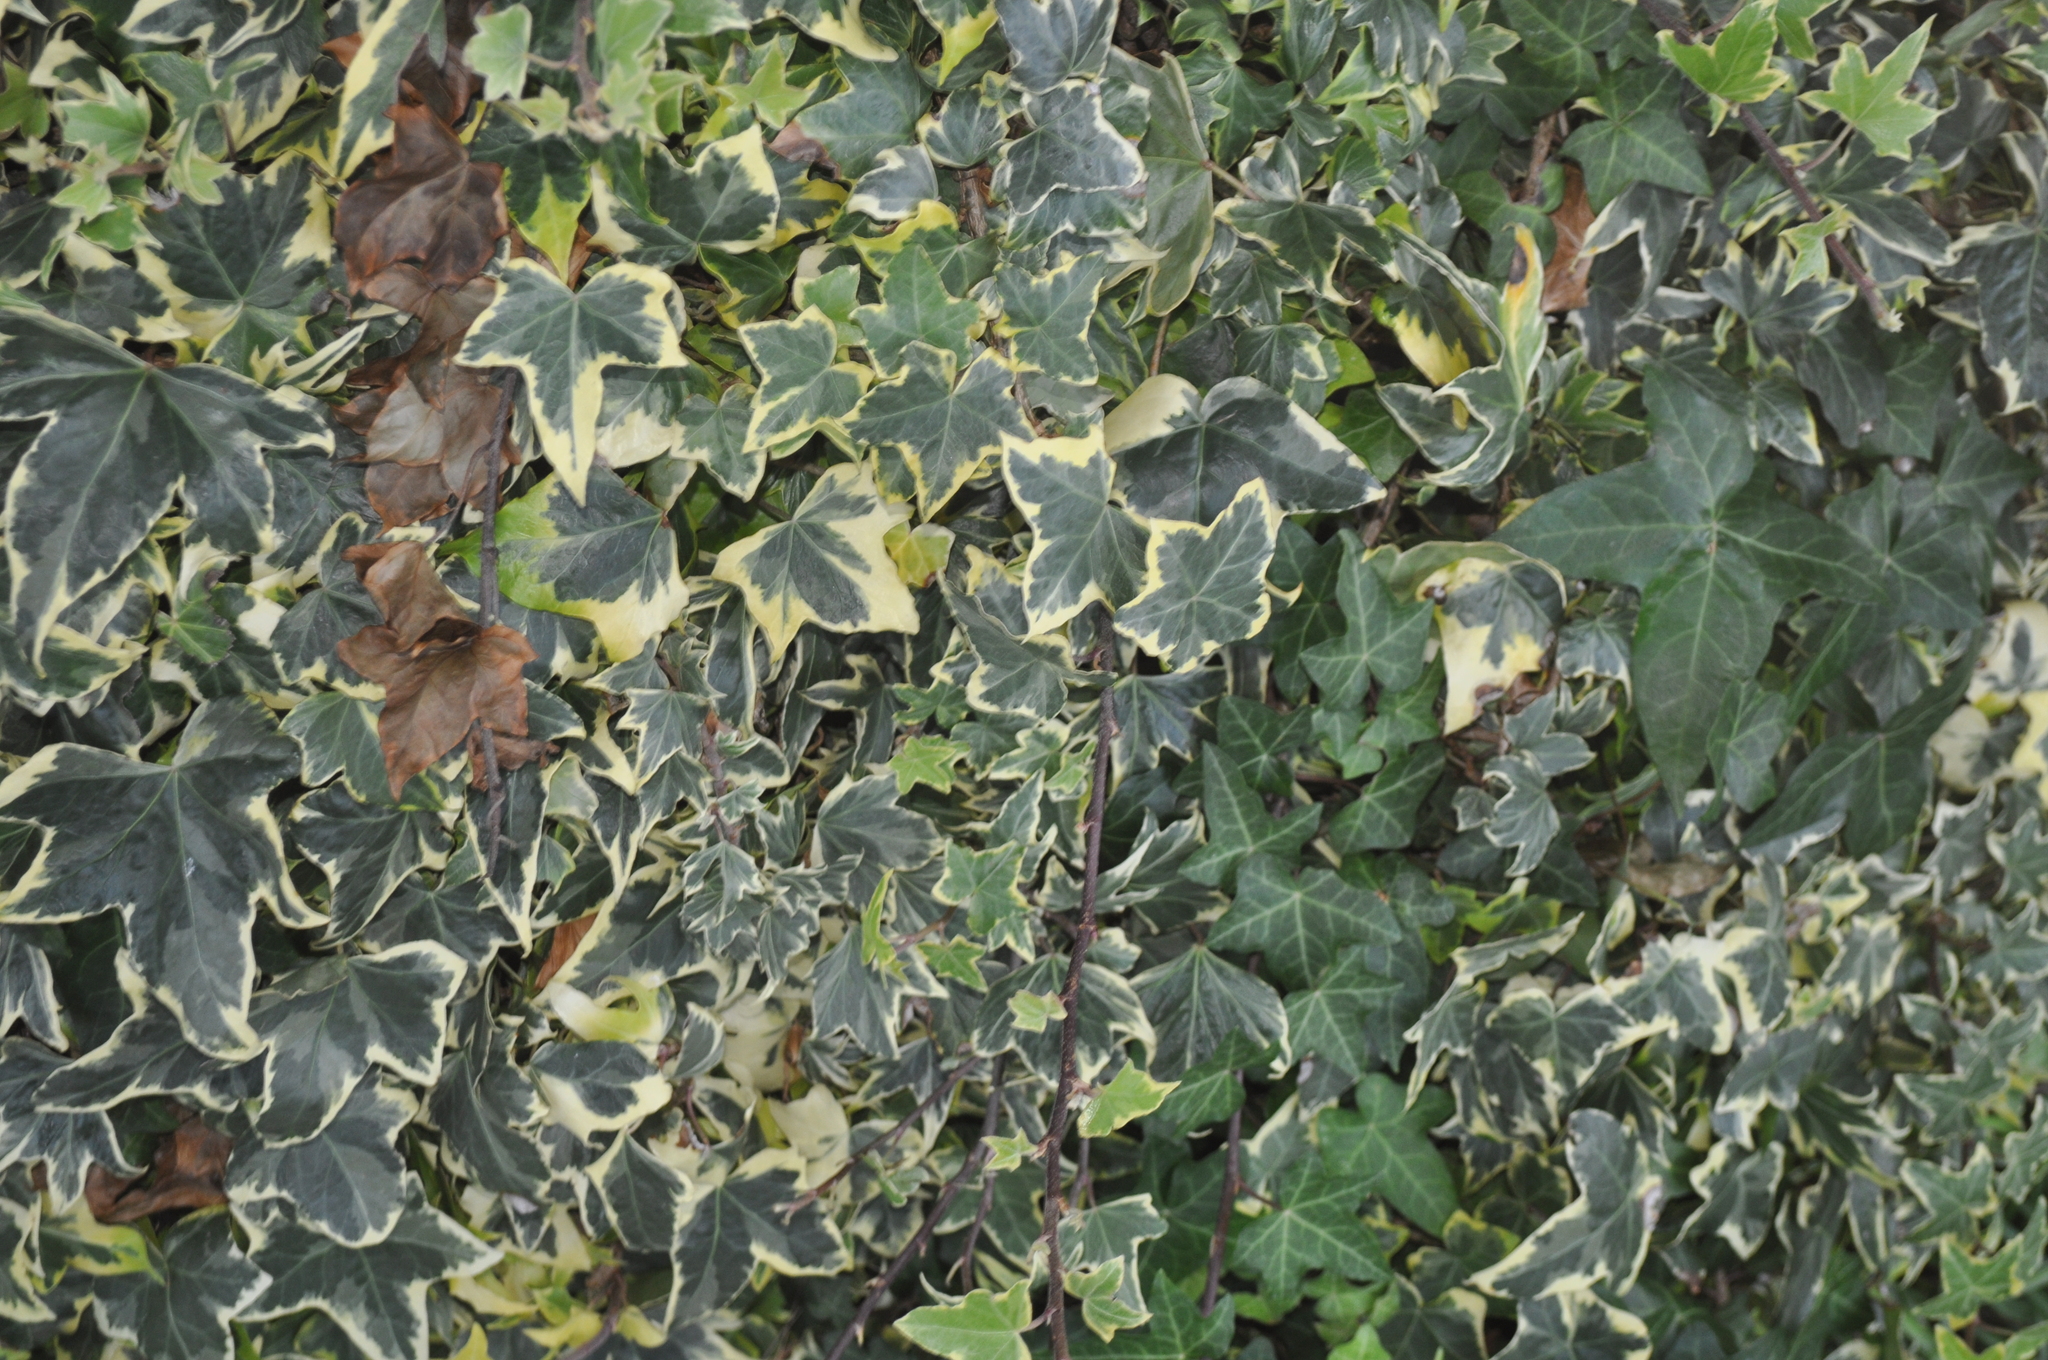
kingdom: Plantae
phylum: Tracheophyta
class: Magnoliopsida
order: Apiales
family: Araliaceae
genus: Hedera
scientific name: Hedera helix
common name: Ivy
